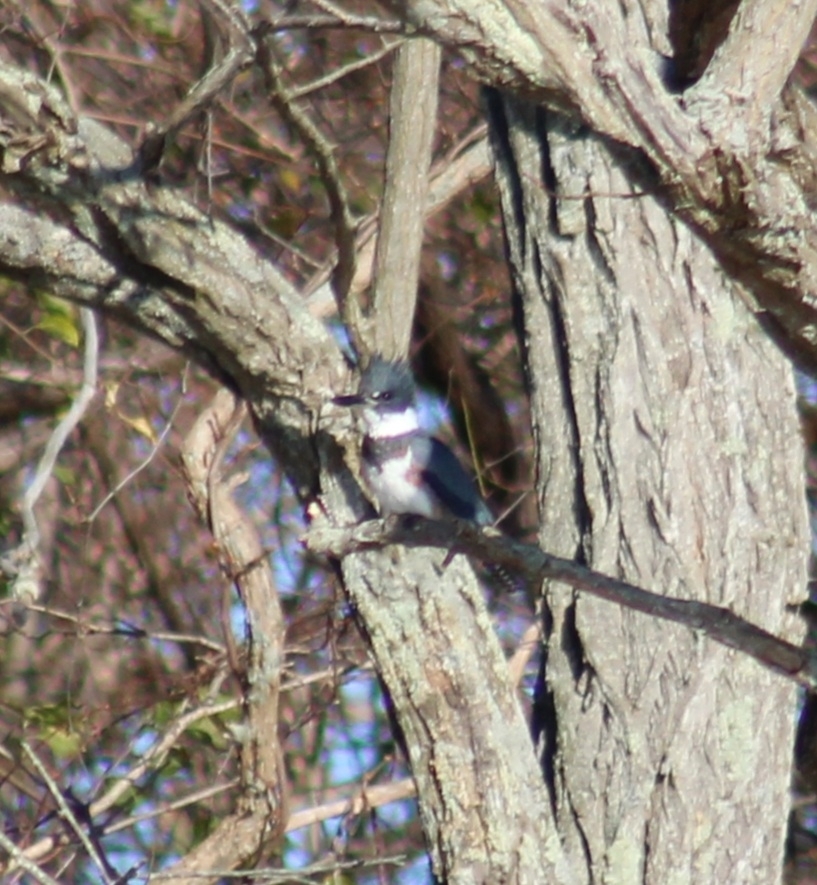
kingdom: Animalia
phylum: Chordata
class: Aves
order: Coraciiformes
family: Alcedinidae
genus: Megaceryle
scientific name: Megaceryle alcyon
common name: Belted kingfisher
